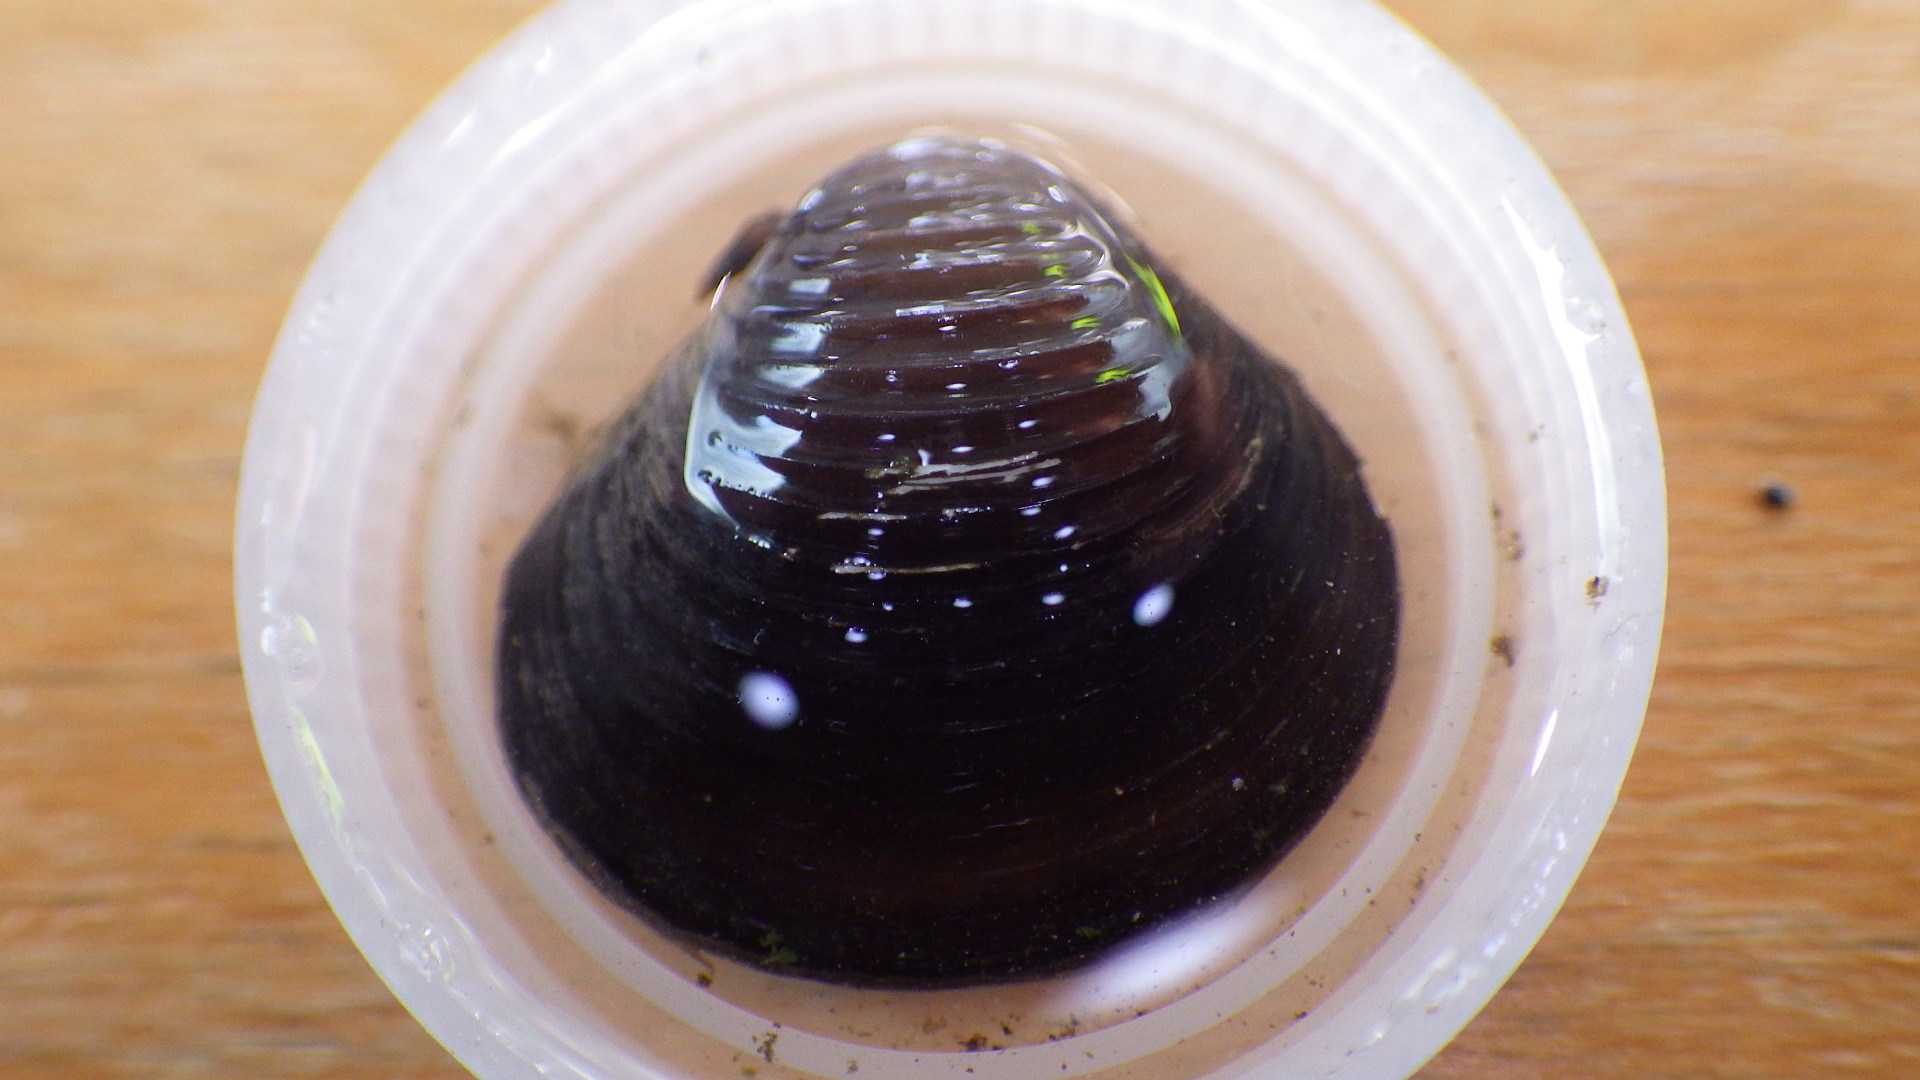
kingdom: Animalia
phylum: Mollusca
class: Bivalvia
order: Venerida
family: Cyrenidae
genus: Corbicula
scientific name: Corbicula fluminea
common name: Asian clam
